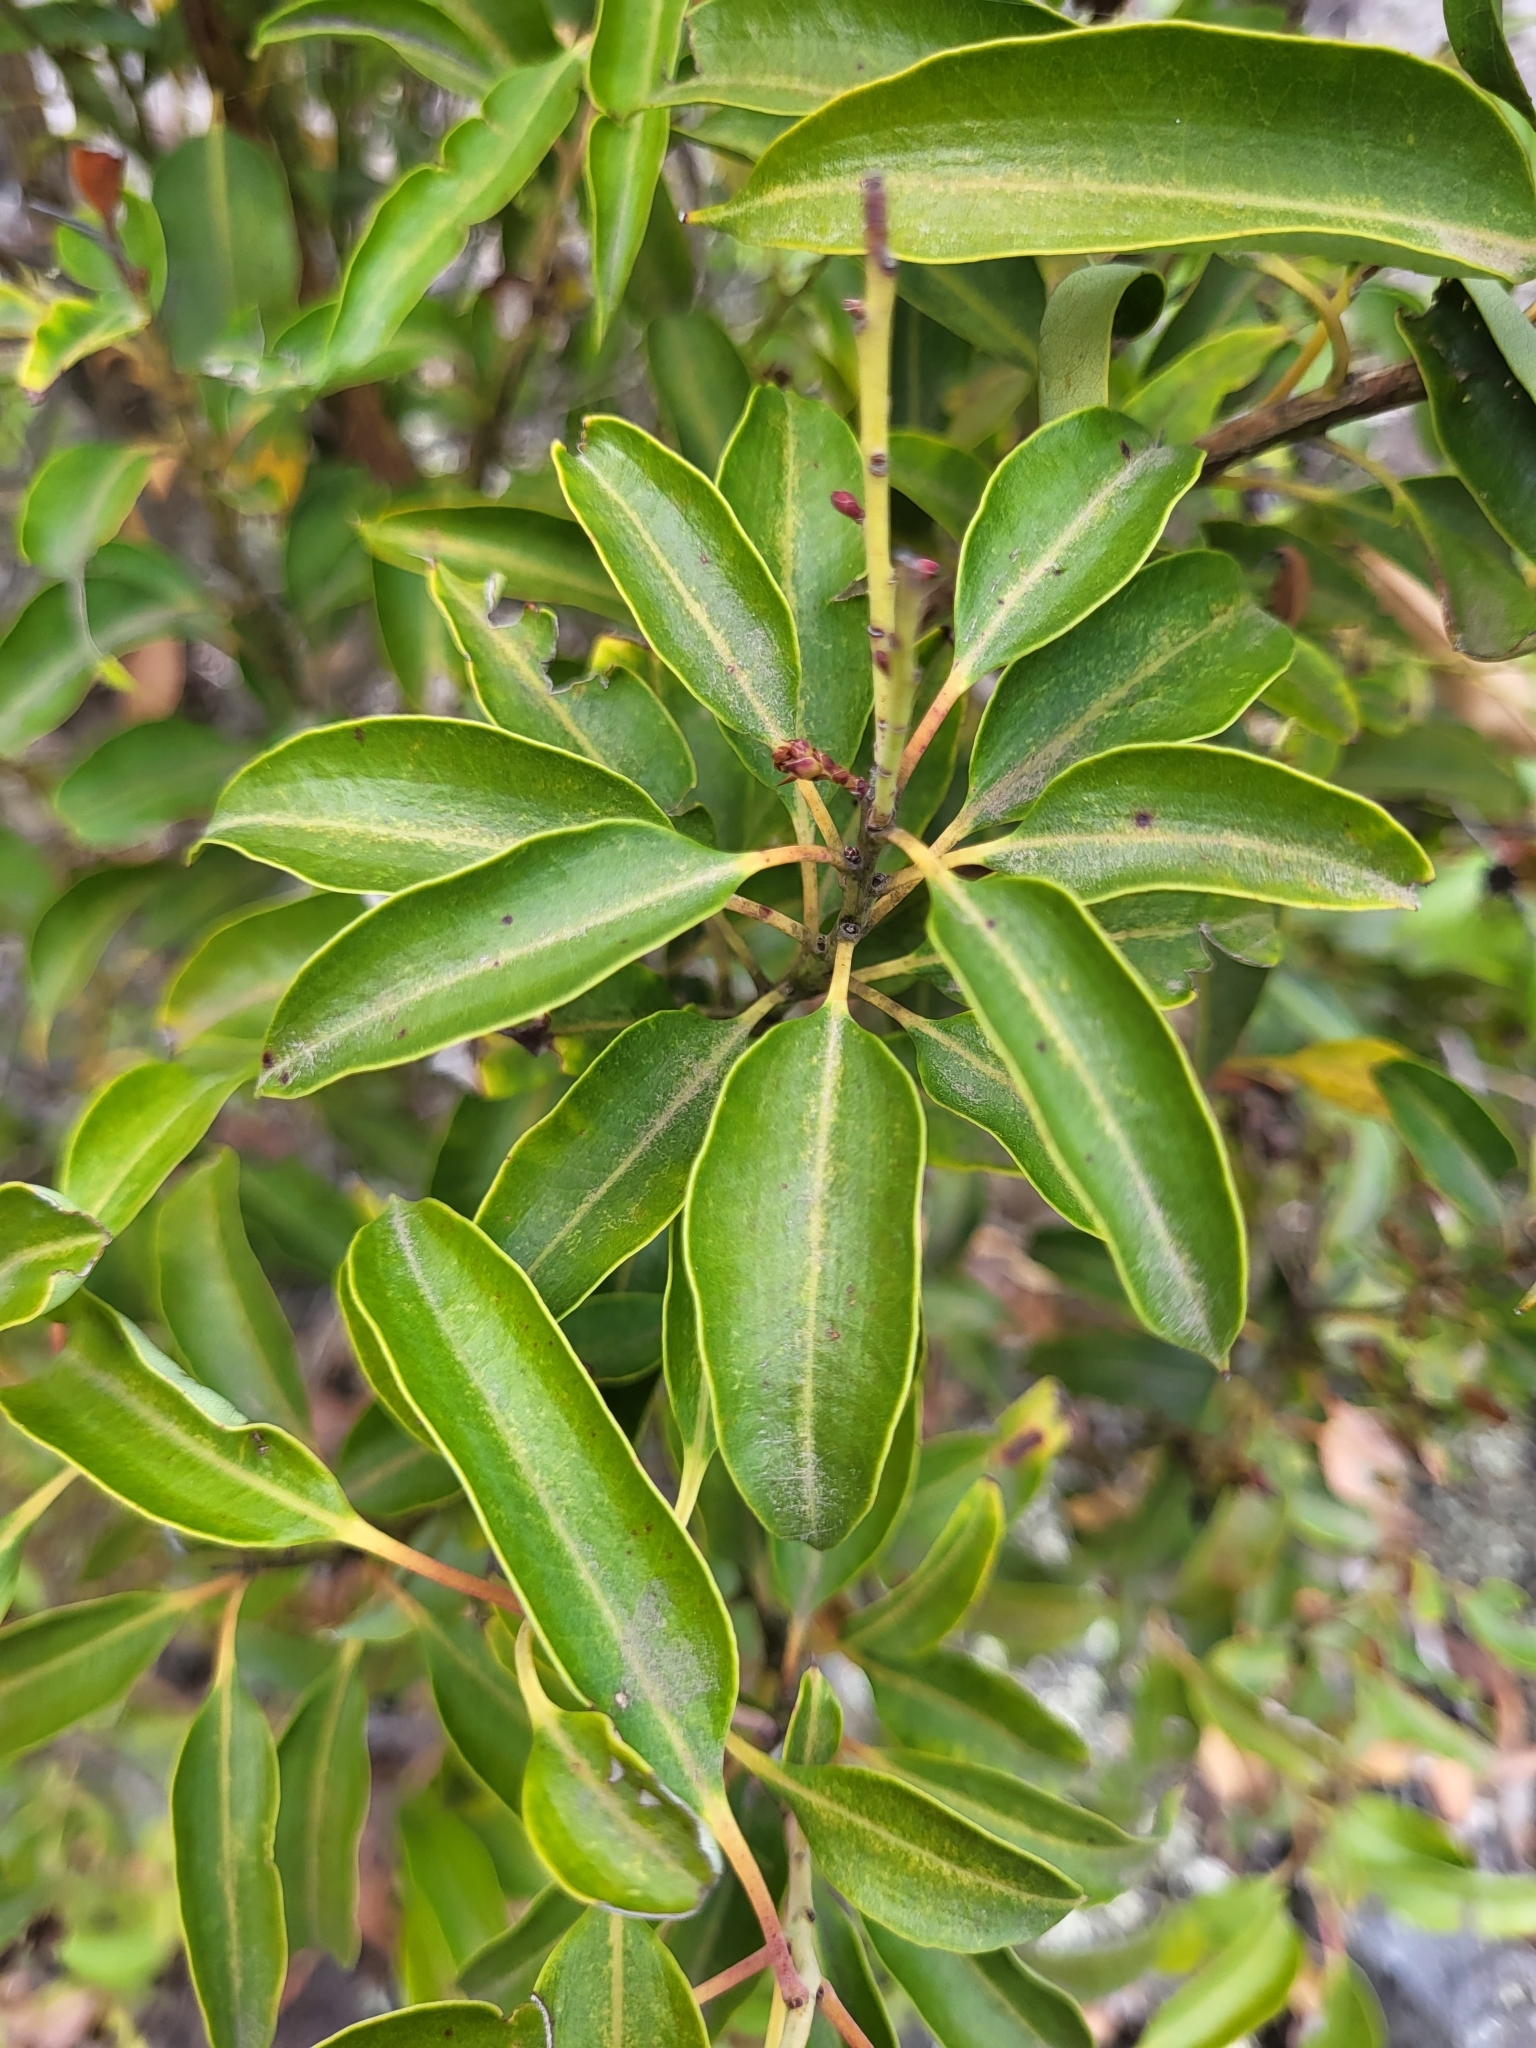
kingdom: Plantae
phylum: Tracheophyta
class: Magnoliopsida
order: Ericales
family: Ericaceae
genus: Agarista
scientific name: Agarista salicifolia
